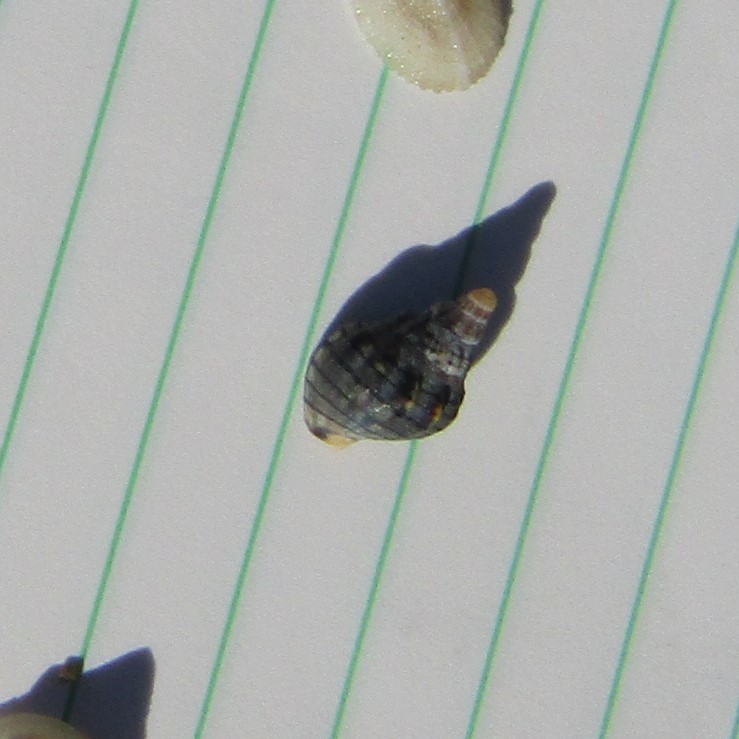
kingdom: Animalia
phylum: Mollusca
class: Gastropoda
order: Neogastropoda
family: Cominellidae
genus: Cominella
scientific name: Cominella virgata
